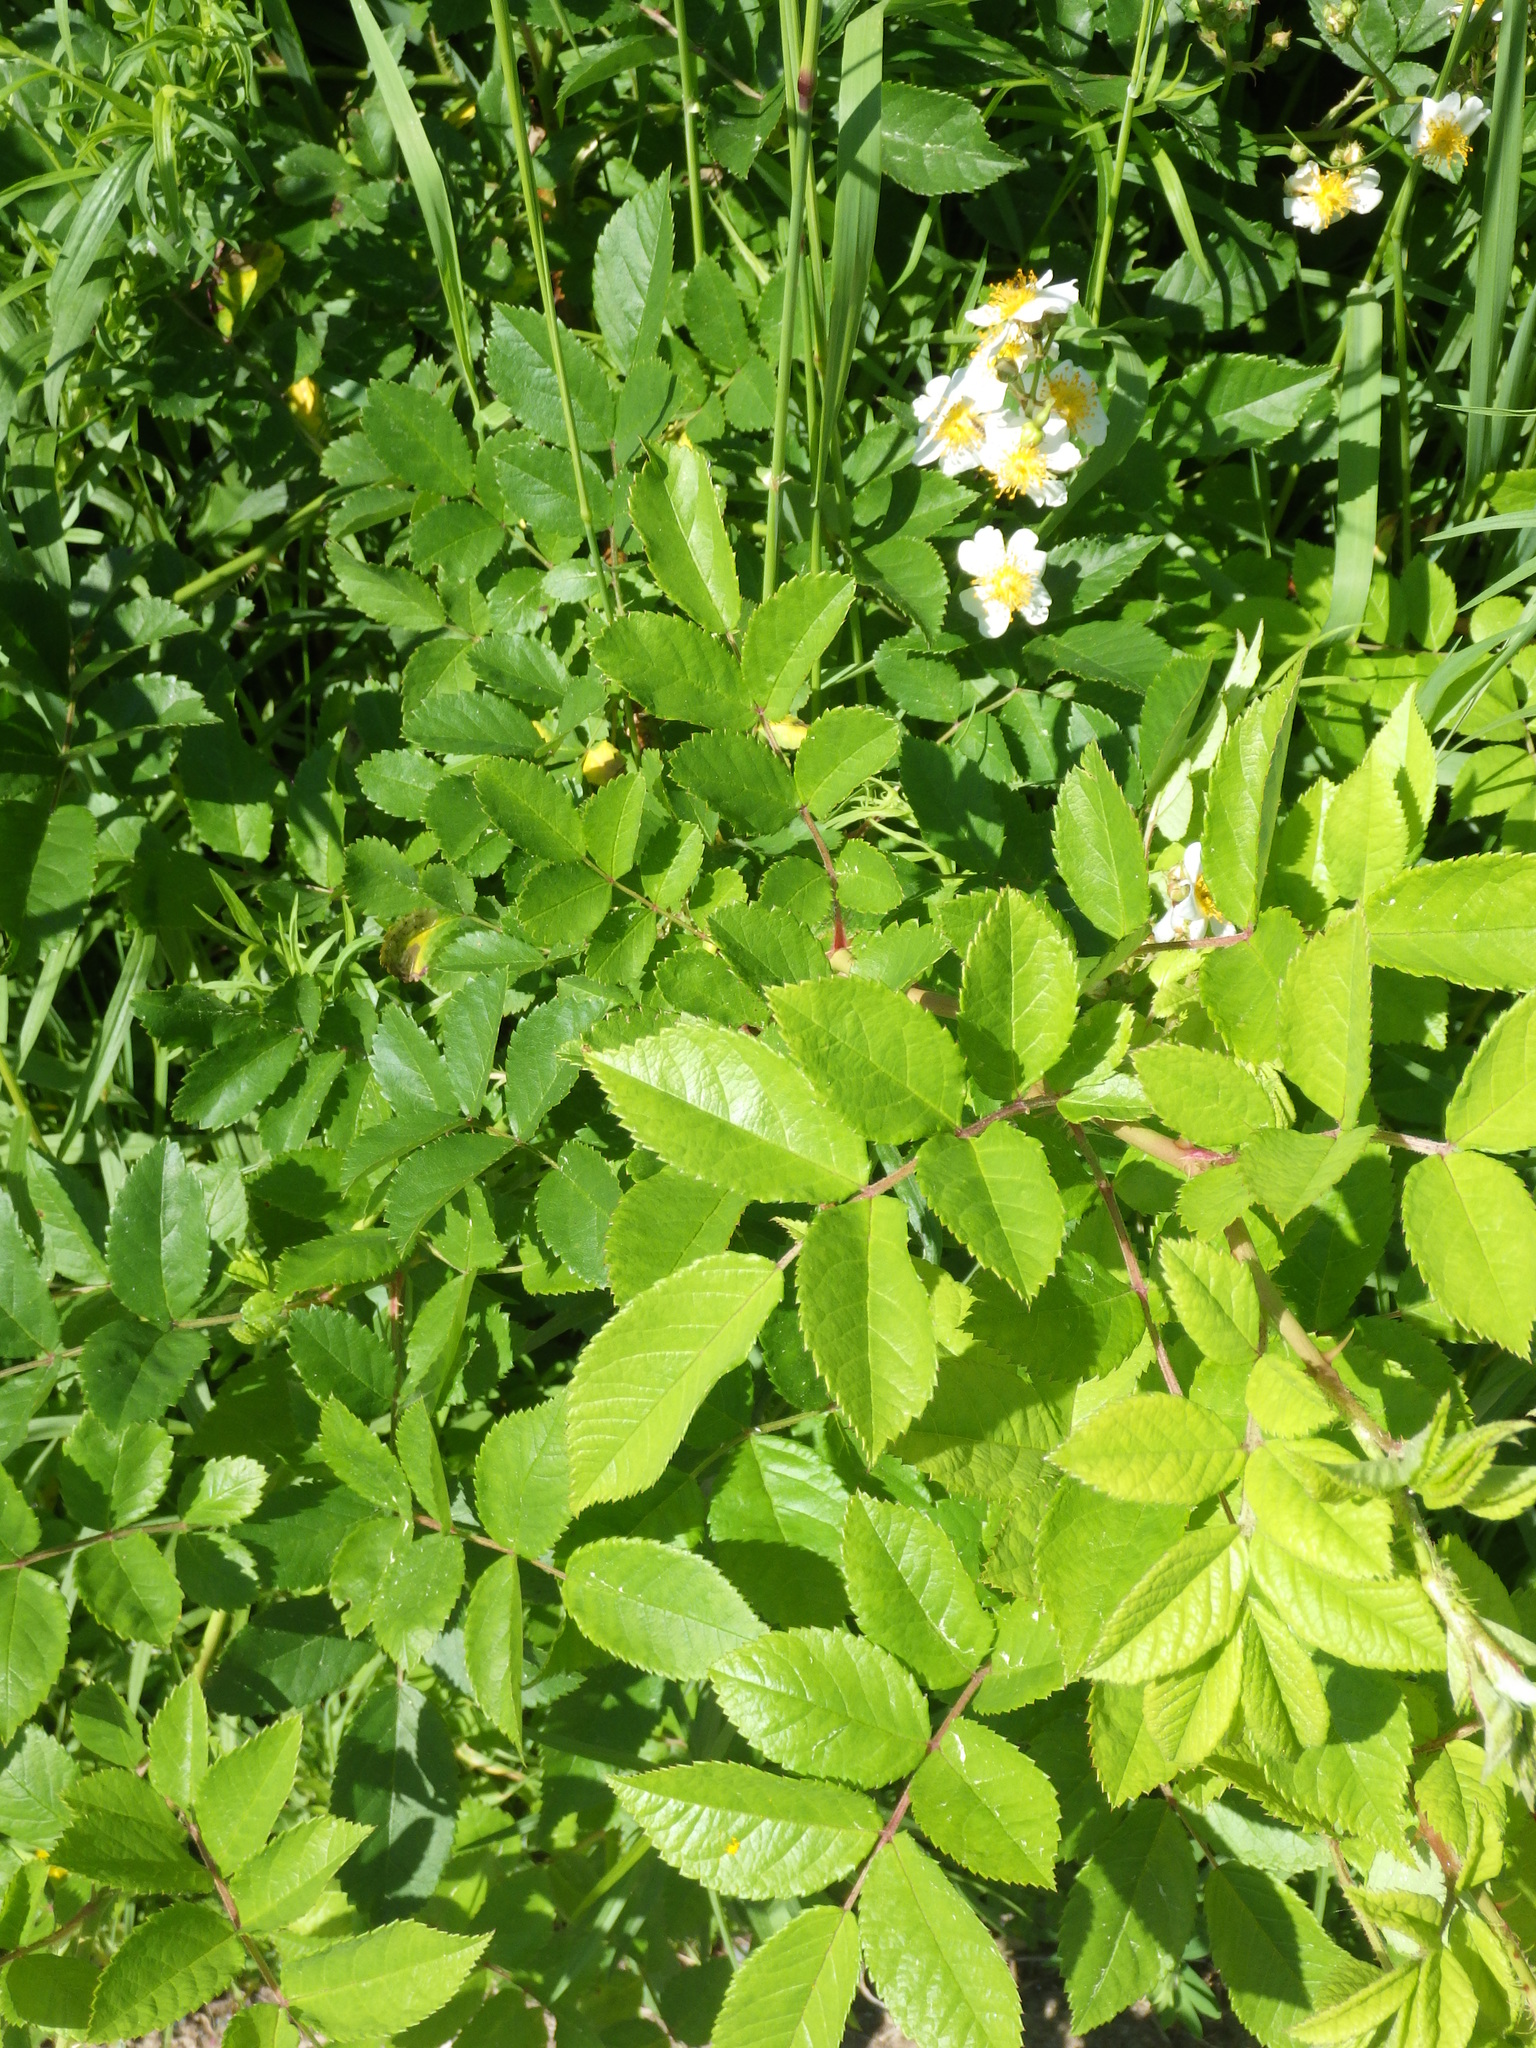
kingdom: Plantae
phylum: Tracheophyta
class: Magnoliopsida
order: Rosales
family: Rosaceae
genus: Rosa
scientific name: Rosa multiflora
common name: Multiflora rose
